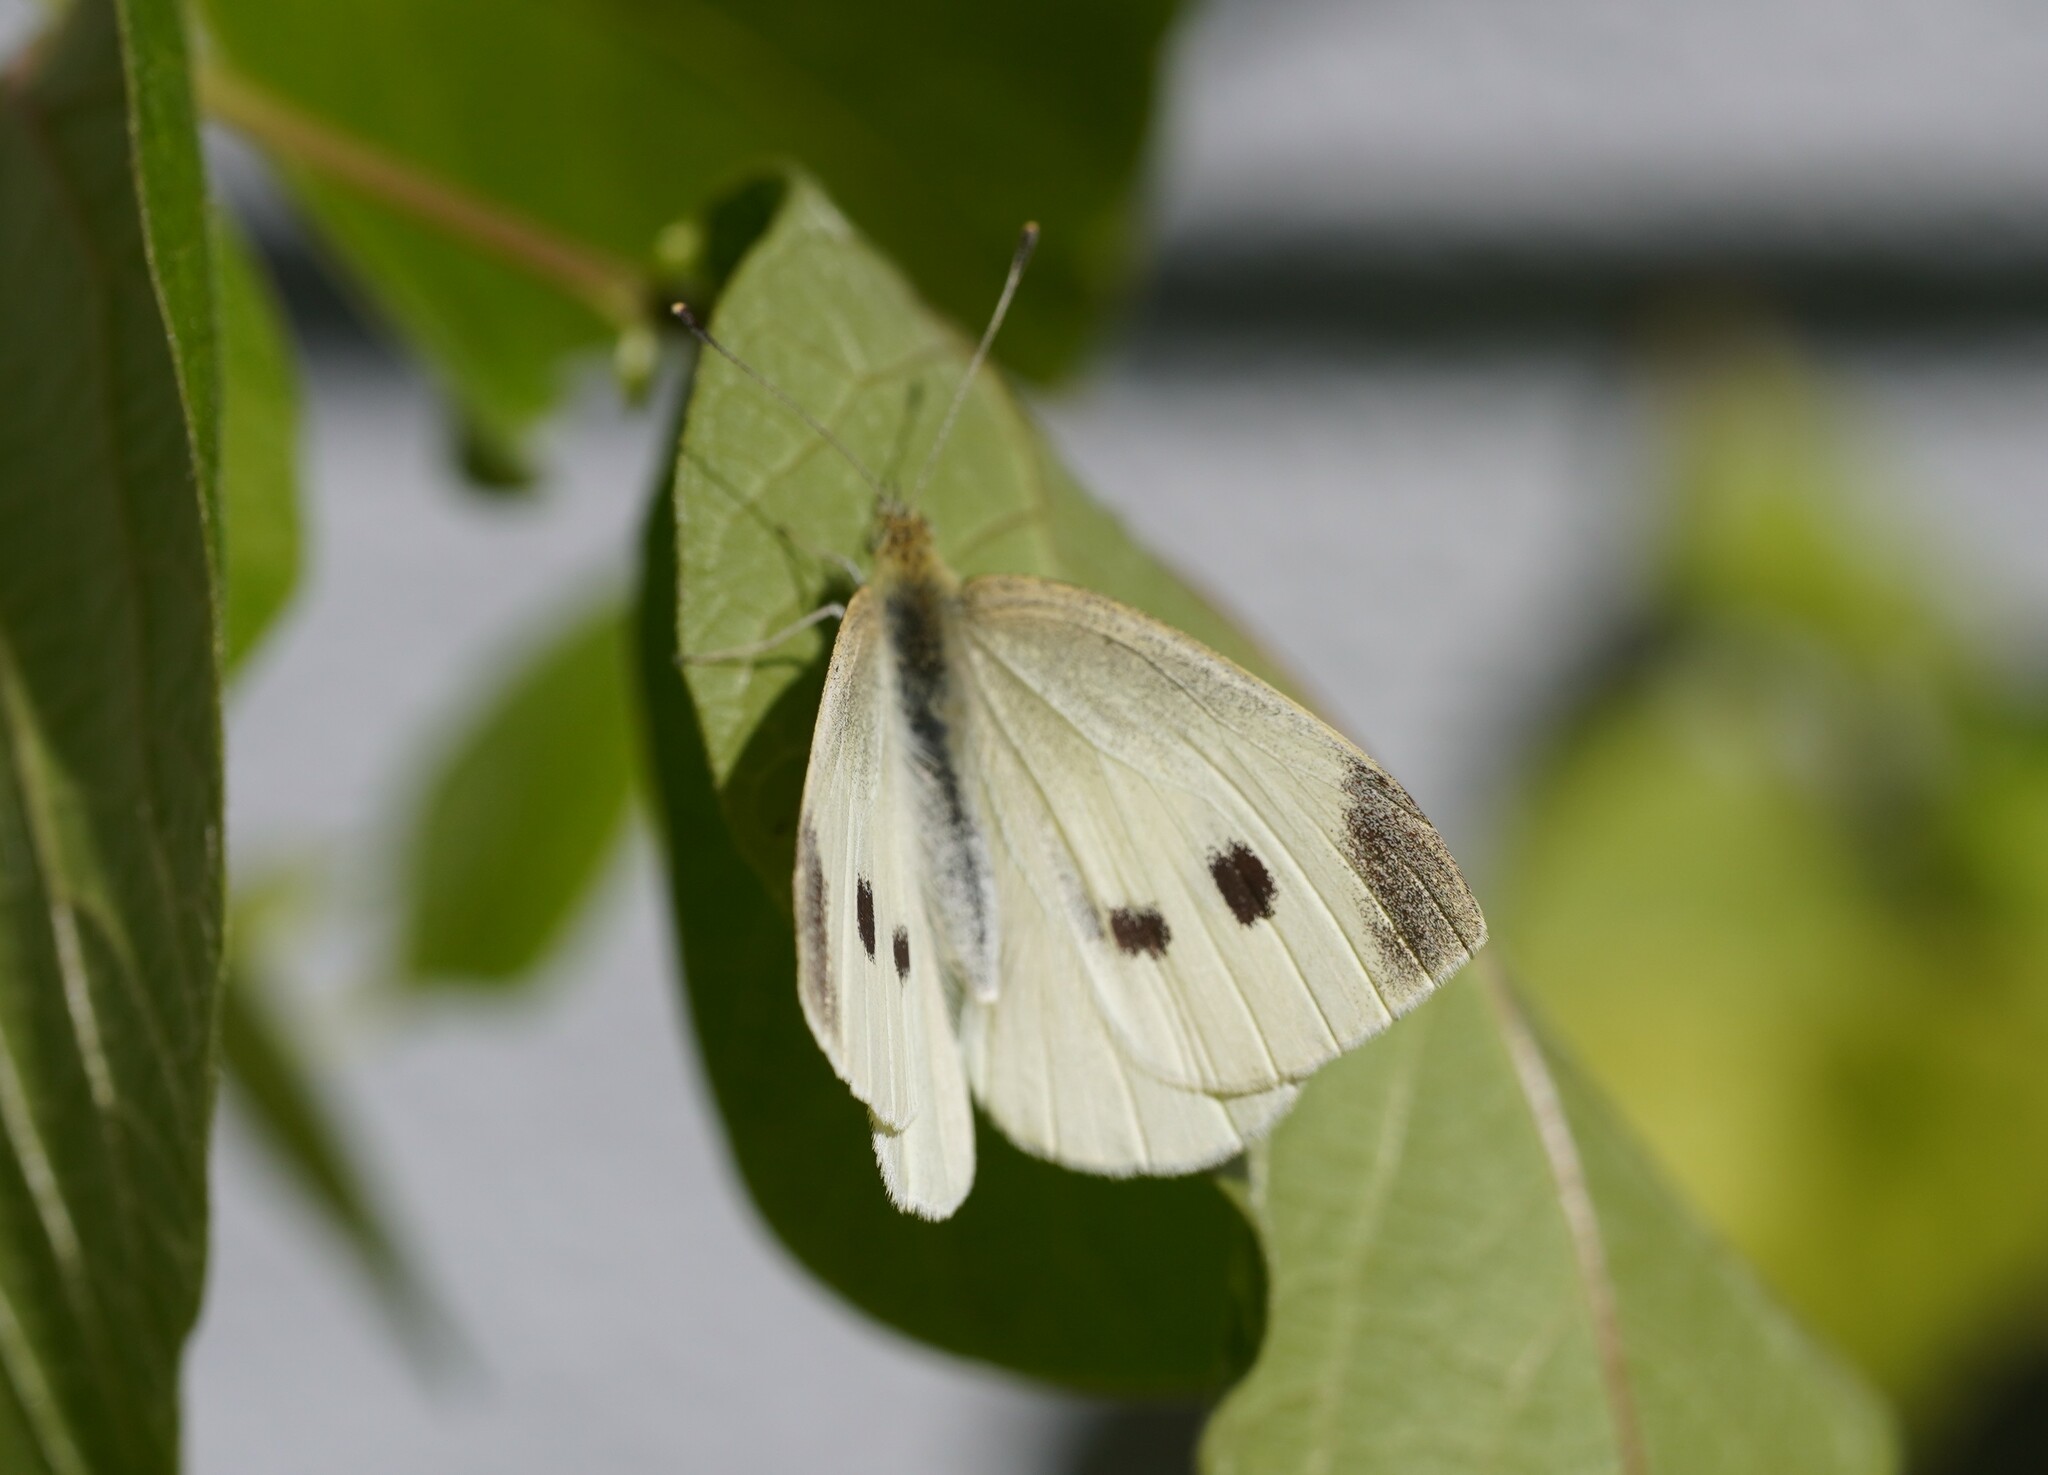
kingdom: Animalia
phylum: Arthropoda
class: Insecta
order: Lepidoptera
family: Pieridae
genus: Pieris
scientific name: Pieris rapae
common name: Small white
